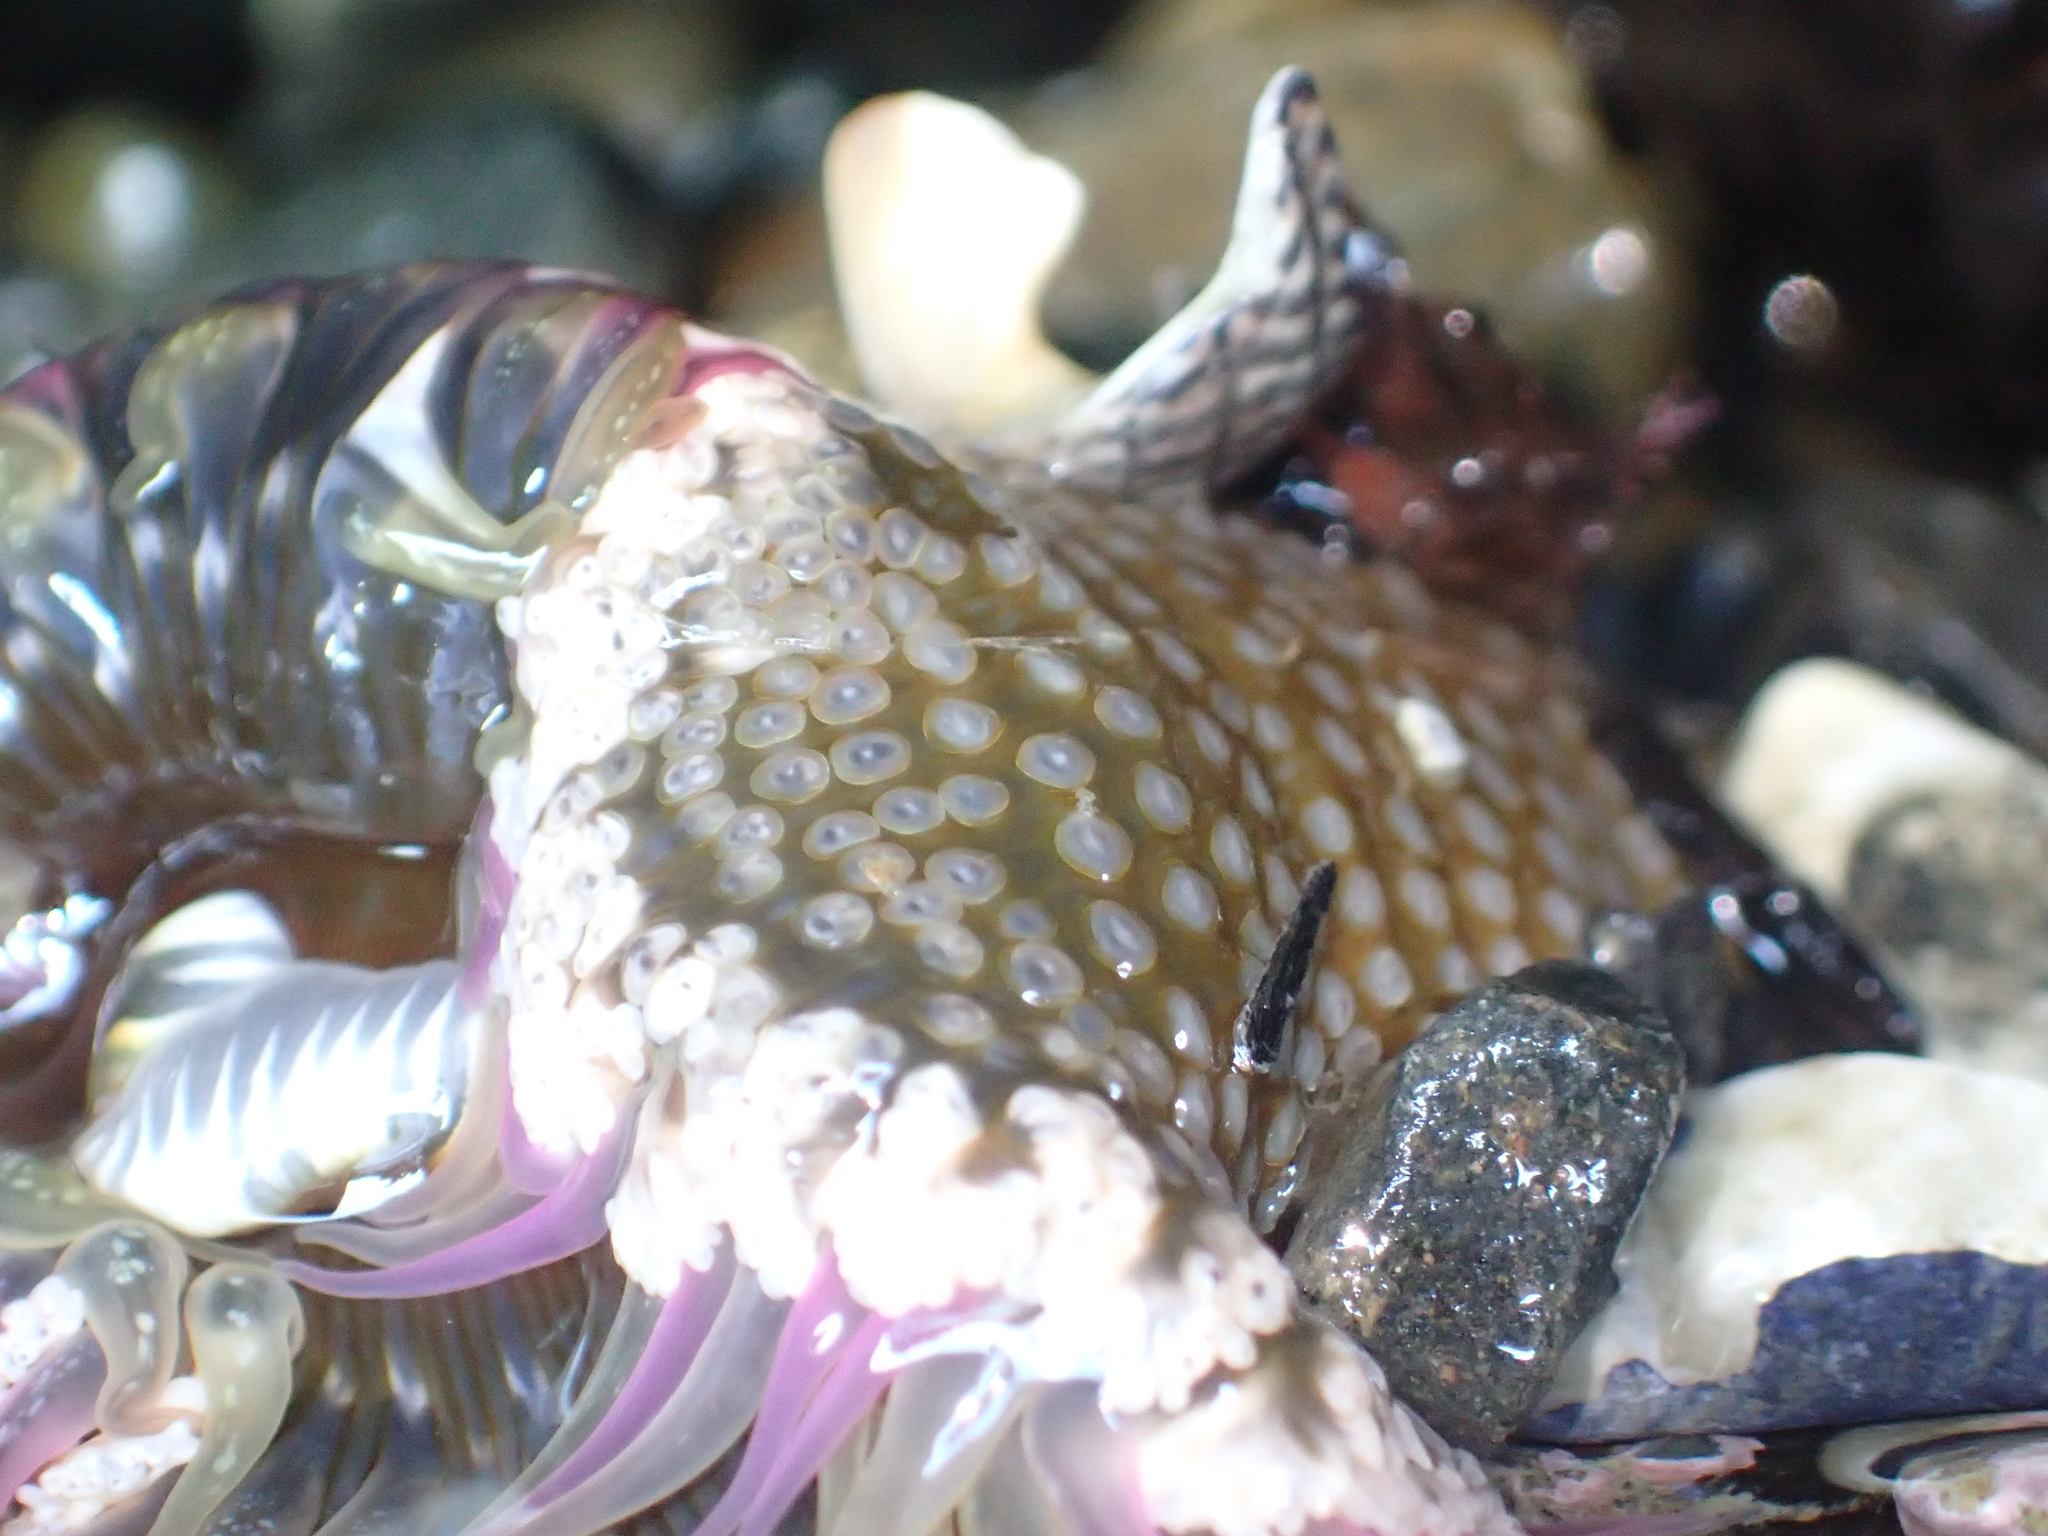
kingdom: Animalia
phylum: Cnidaria
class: Anthozoa
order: Actiniaria
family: Actiniidae
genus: Oulactis
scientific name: Oulactis muscosa
